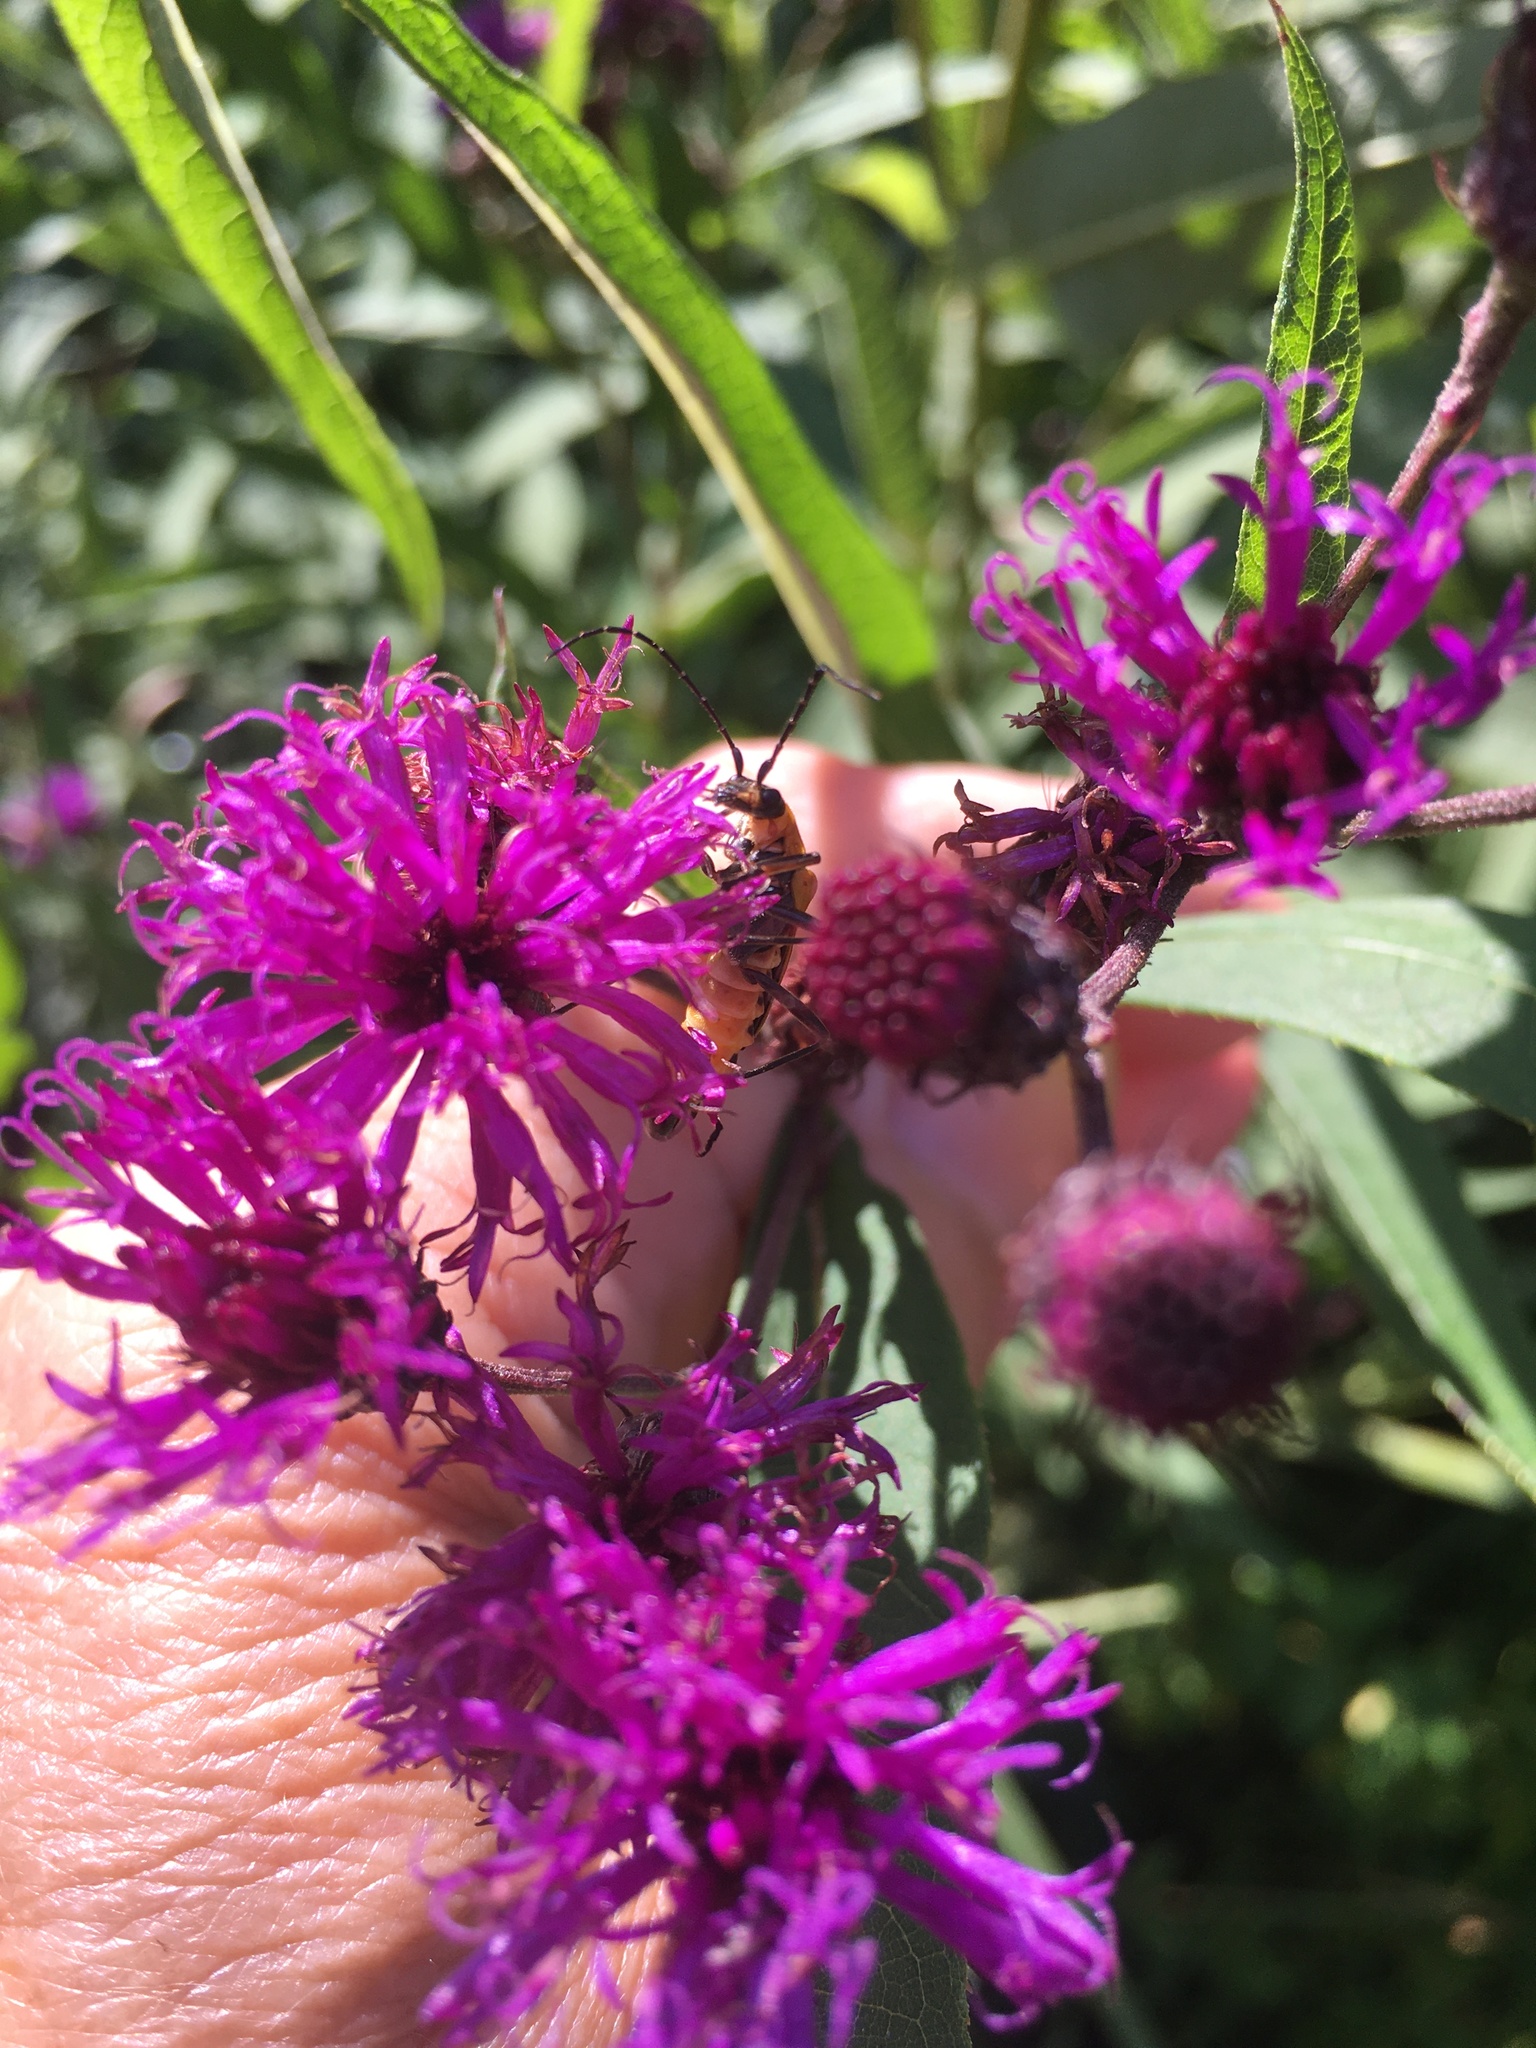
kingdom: Plantae
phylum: Tracheophyta
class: Magnoliopsida
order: Asterales
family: Asteraceae
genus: Vernonia
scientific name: Vernonia noveboracensis
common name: New york ironweed
